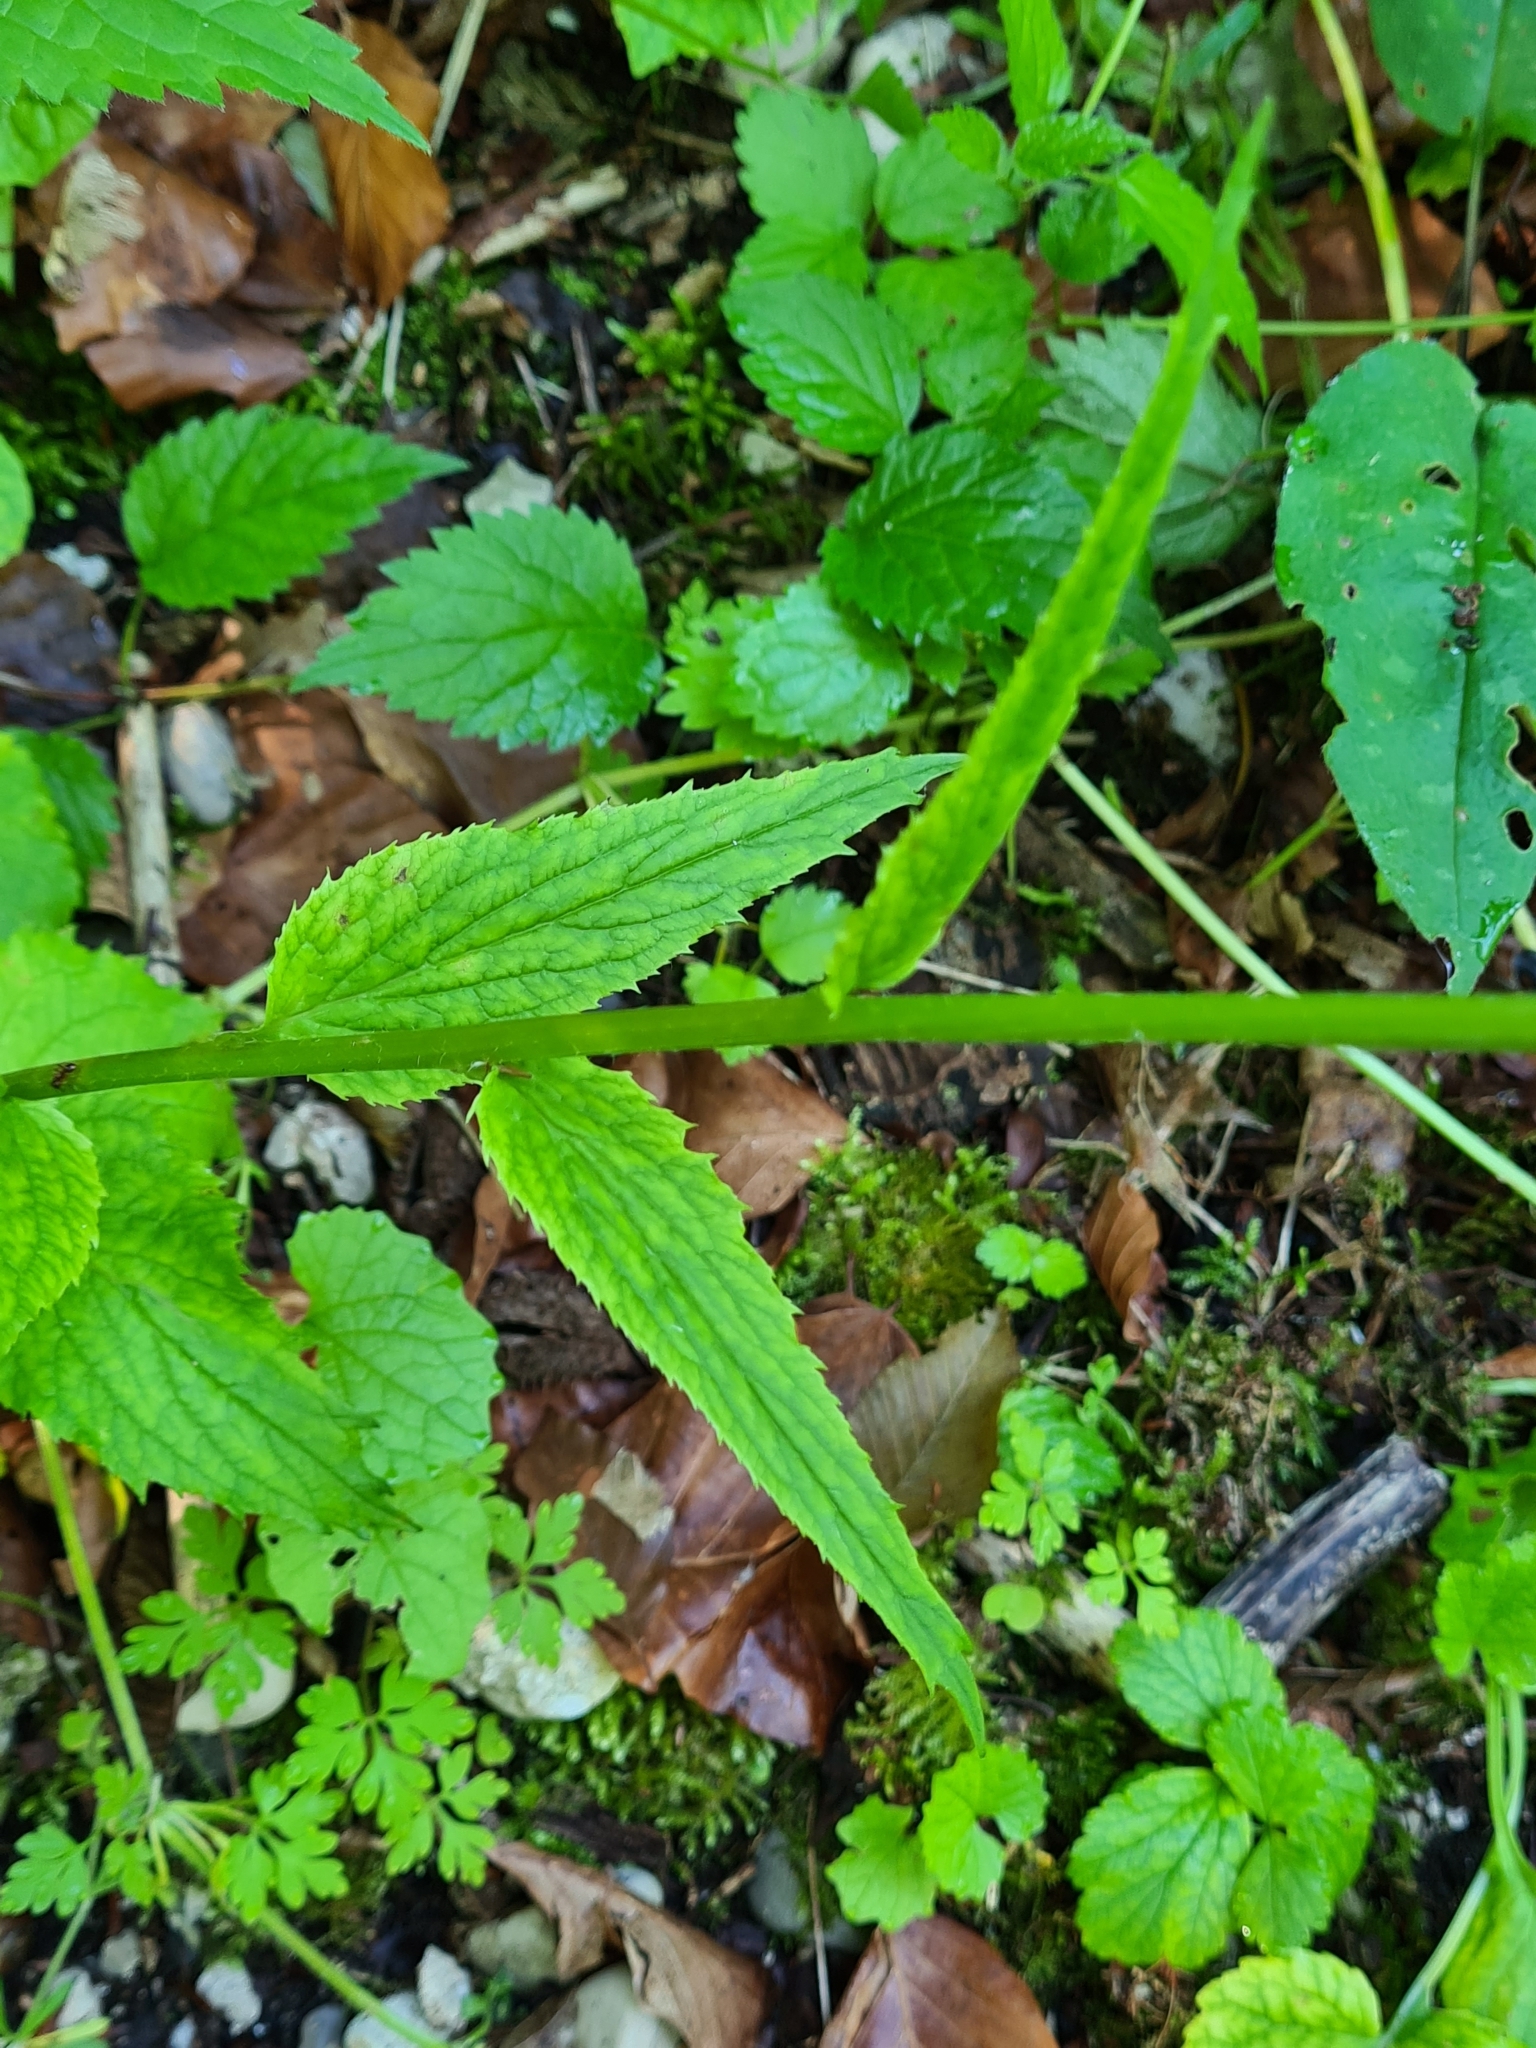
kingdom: Plantae
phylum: Tracheophyta
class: Magnoliopsida
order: Asterales
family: Campanulaceae
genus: Phyteuma
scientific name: Phyteuma spicatum
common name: Spiked rampion
